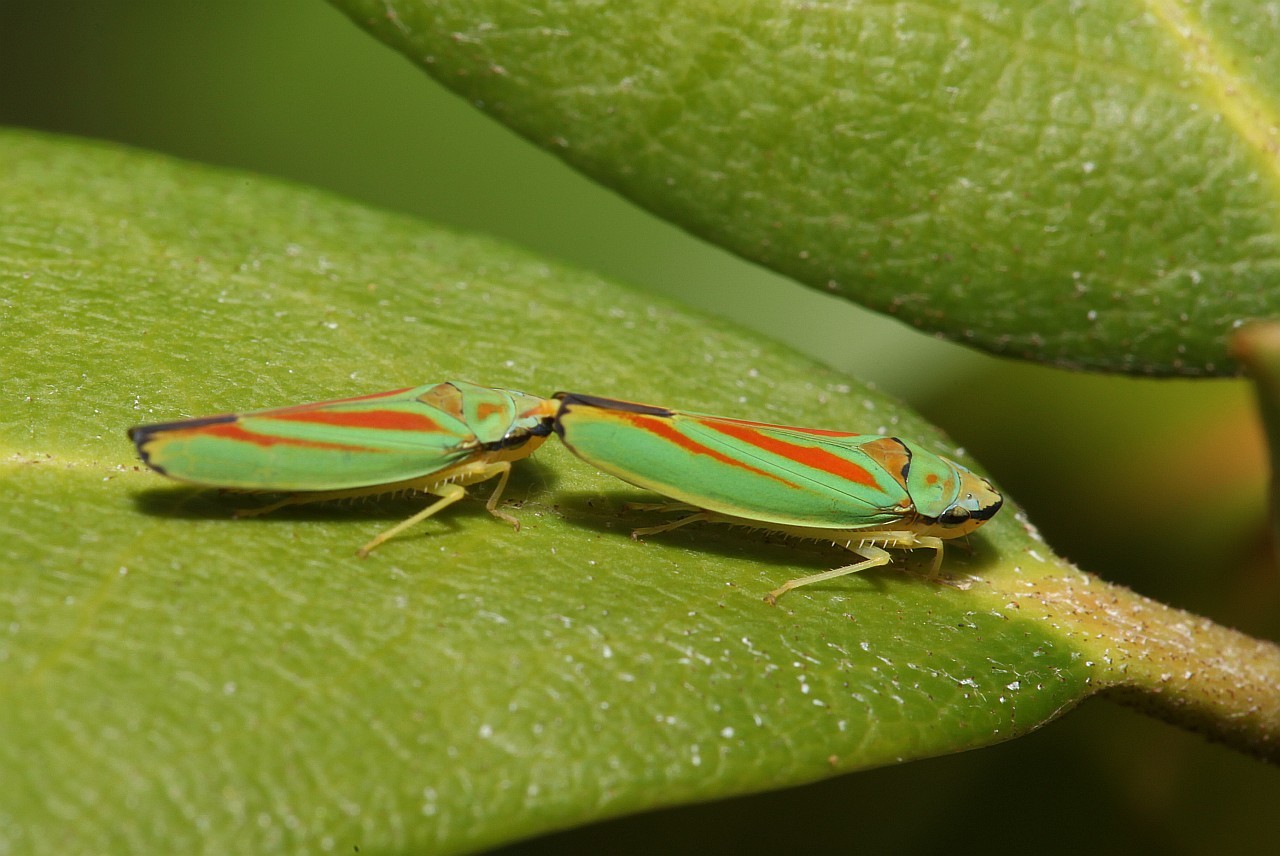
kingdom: Animalia
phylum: Arthropoda
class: Insecta
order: Hemiptera
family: Cicadellidae
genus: Graphocephala
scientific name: Graphocephala fennahi
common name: Rhododendron leafhopper
